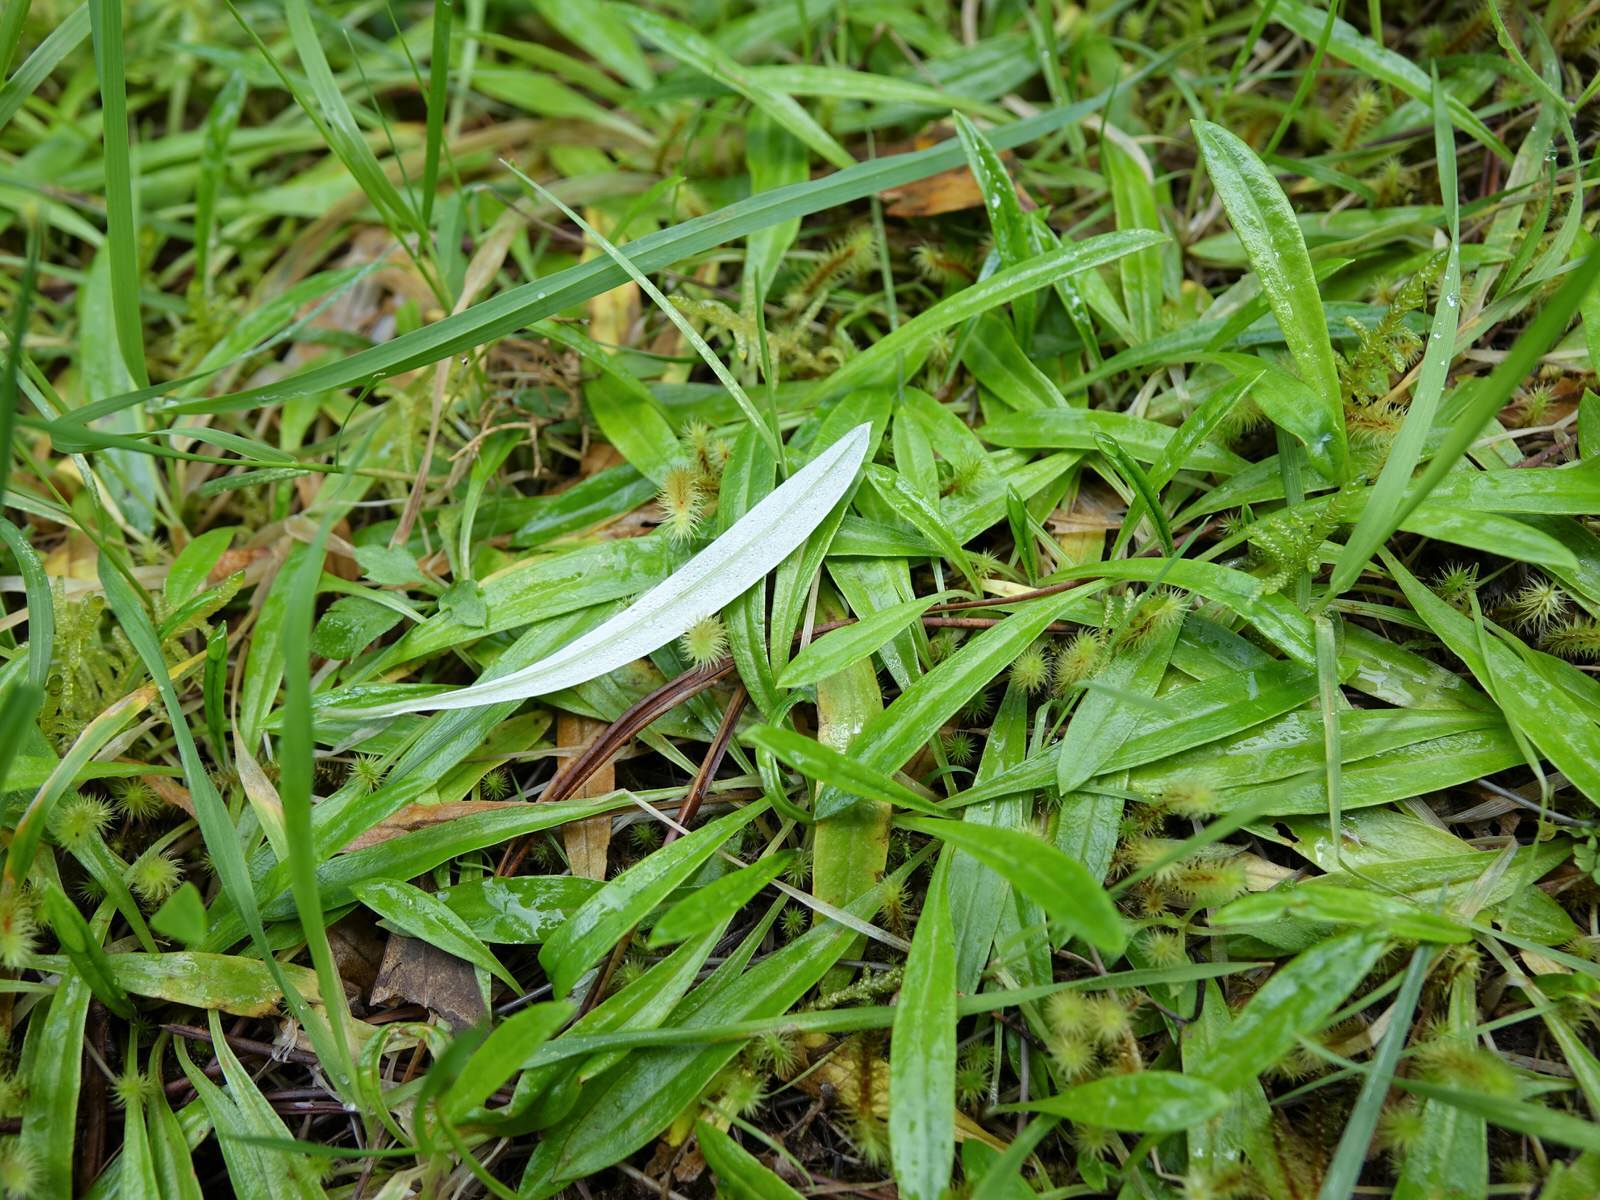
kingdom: Plantae
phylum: Tracheophyta
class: Magnoliopsida
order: Asterales
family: Asteraceae
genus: Euchiton
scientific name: Euchiton japonicus
